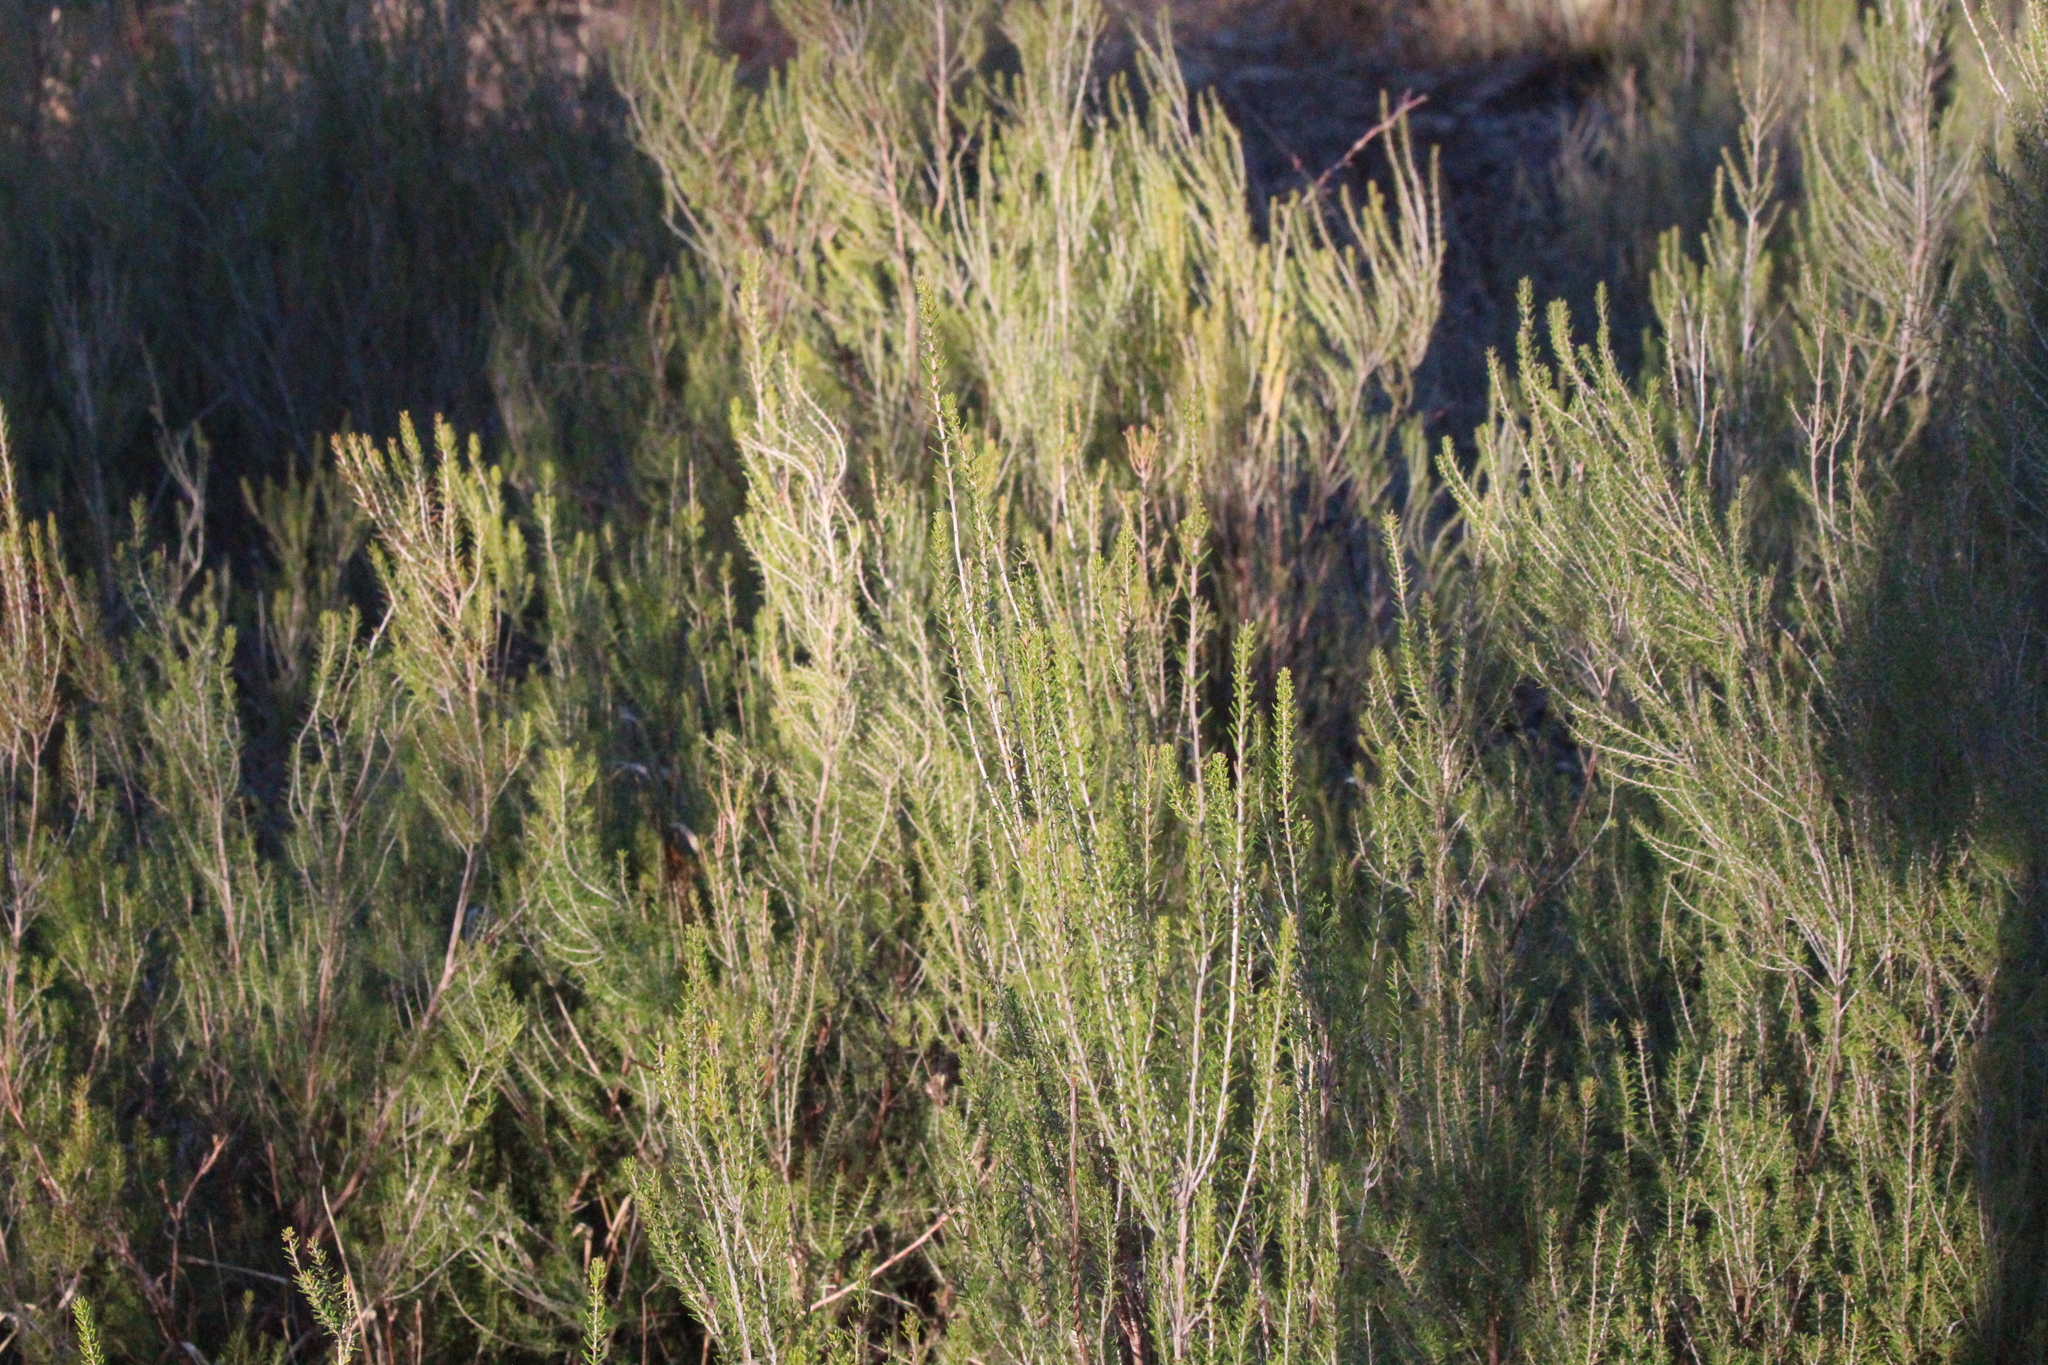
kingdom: Plantae
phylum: Tracheophyta
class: Magnoliopsida
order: Ericales
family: Ericaceae
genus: Erica
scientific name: Erica scoparia
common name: Green heather
